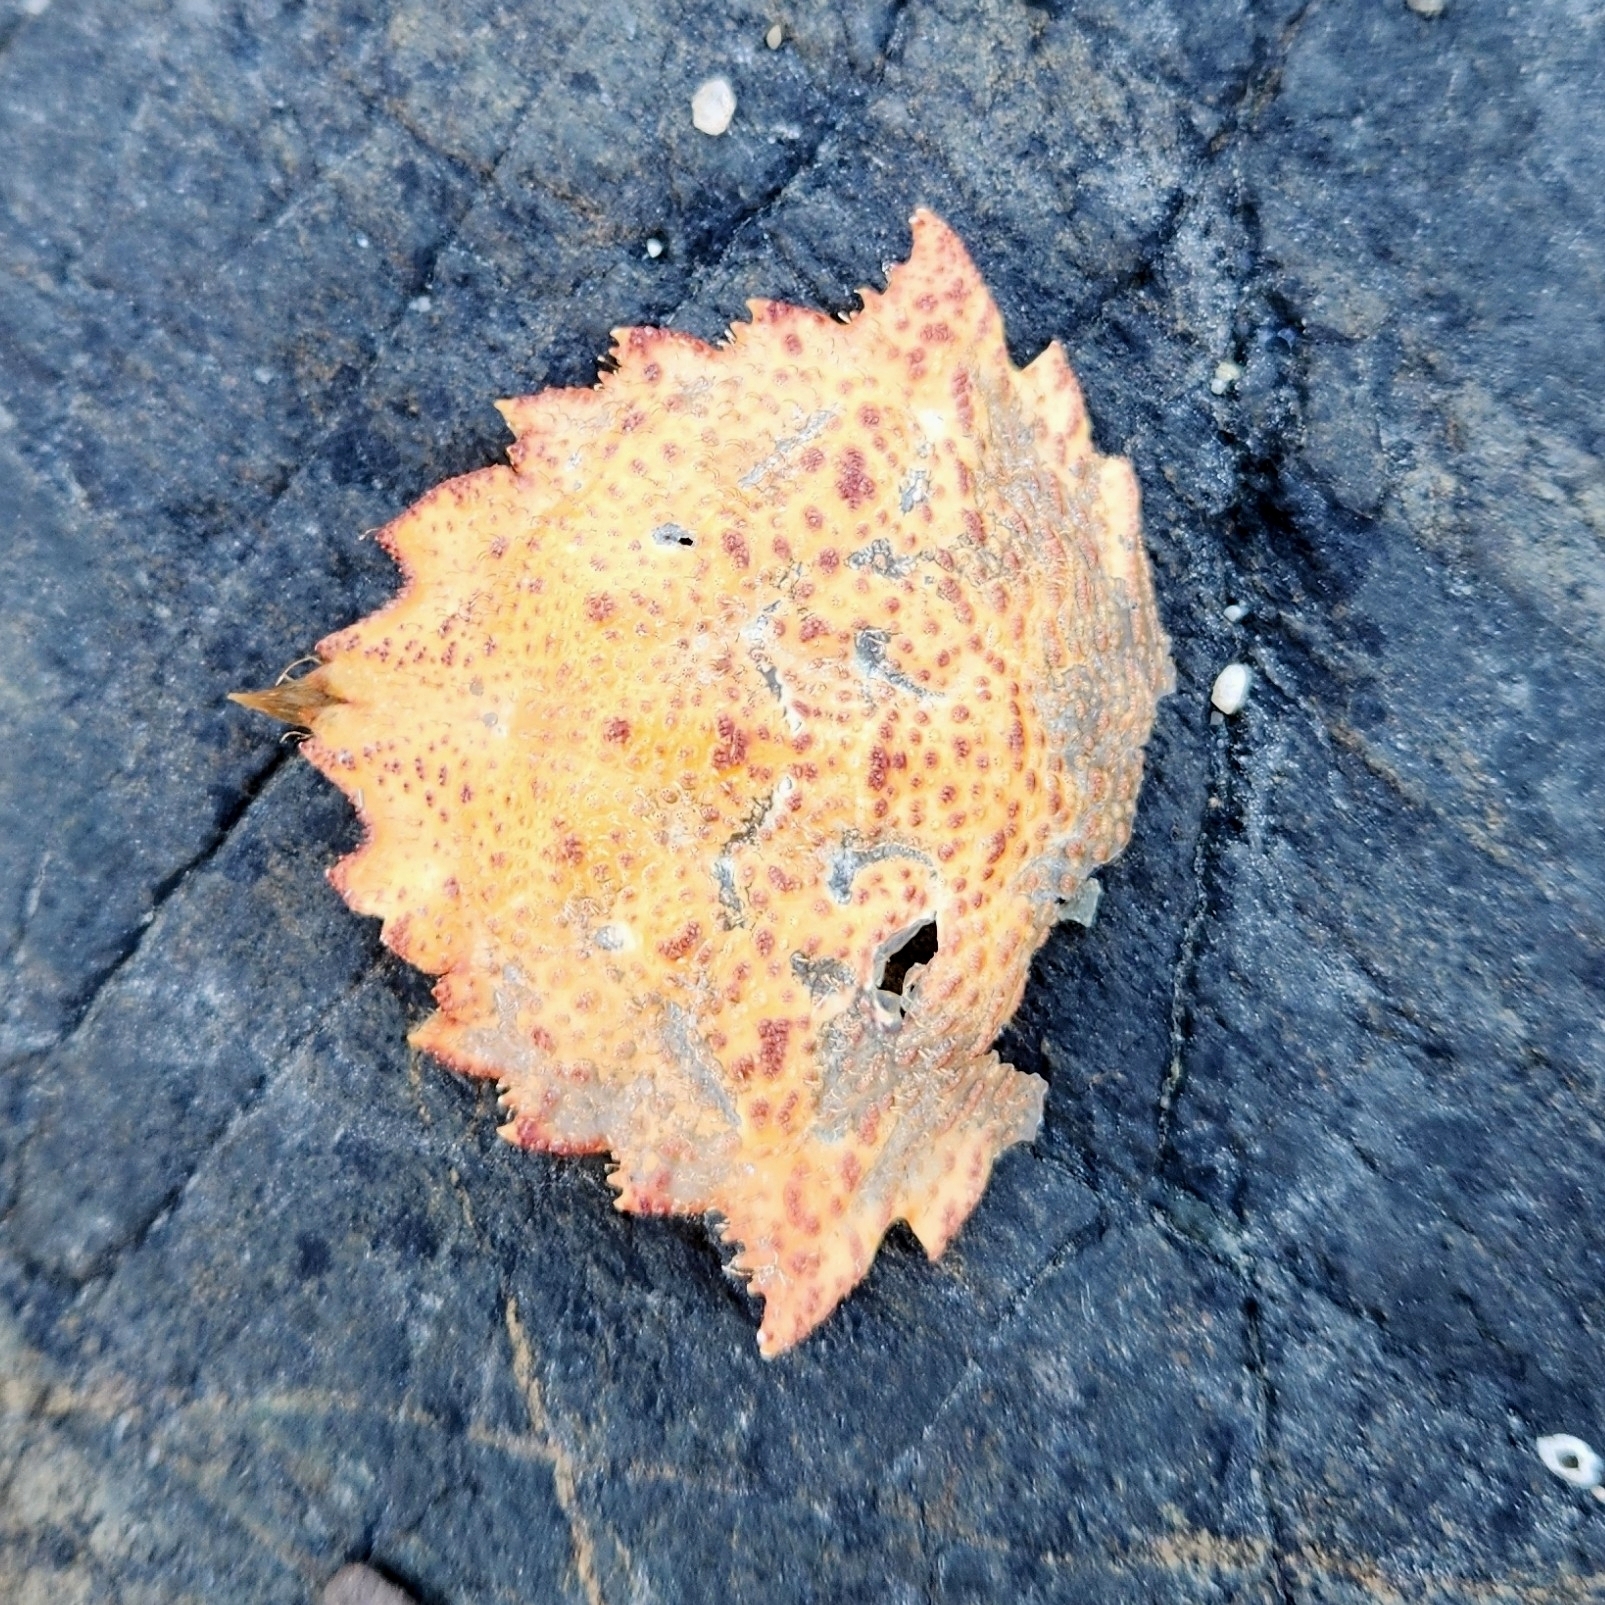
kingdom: Animalia
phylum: Arthropoda
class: Malacostraca
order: Decapoda
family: Cheiragonidae
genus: Telmessus
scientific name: Telmessus cheiragonus
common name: Helmet crab
